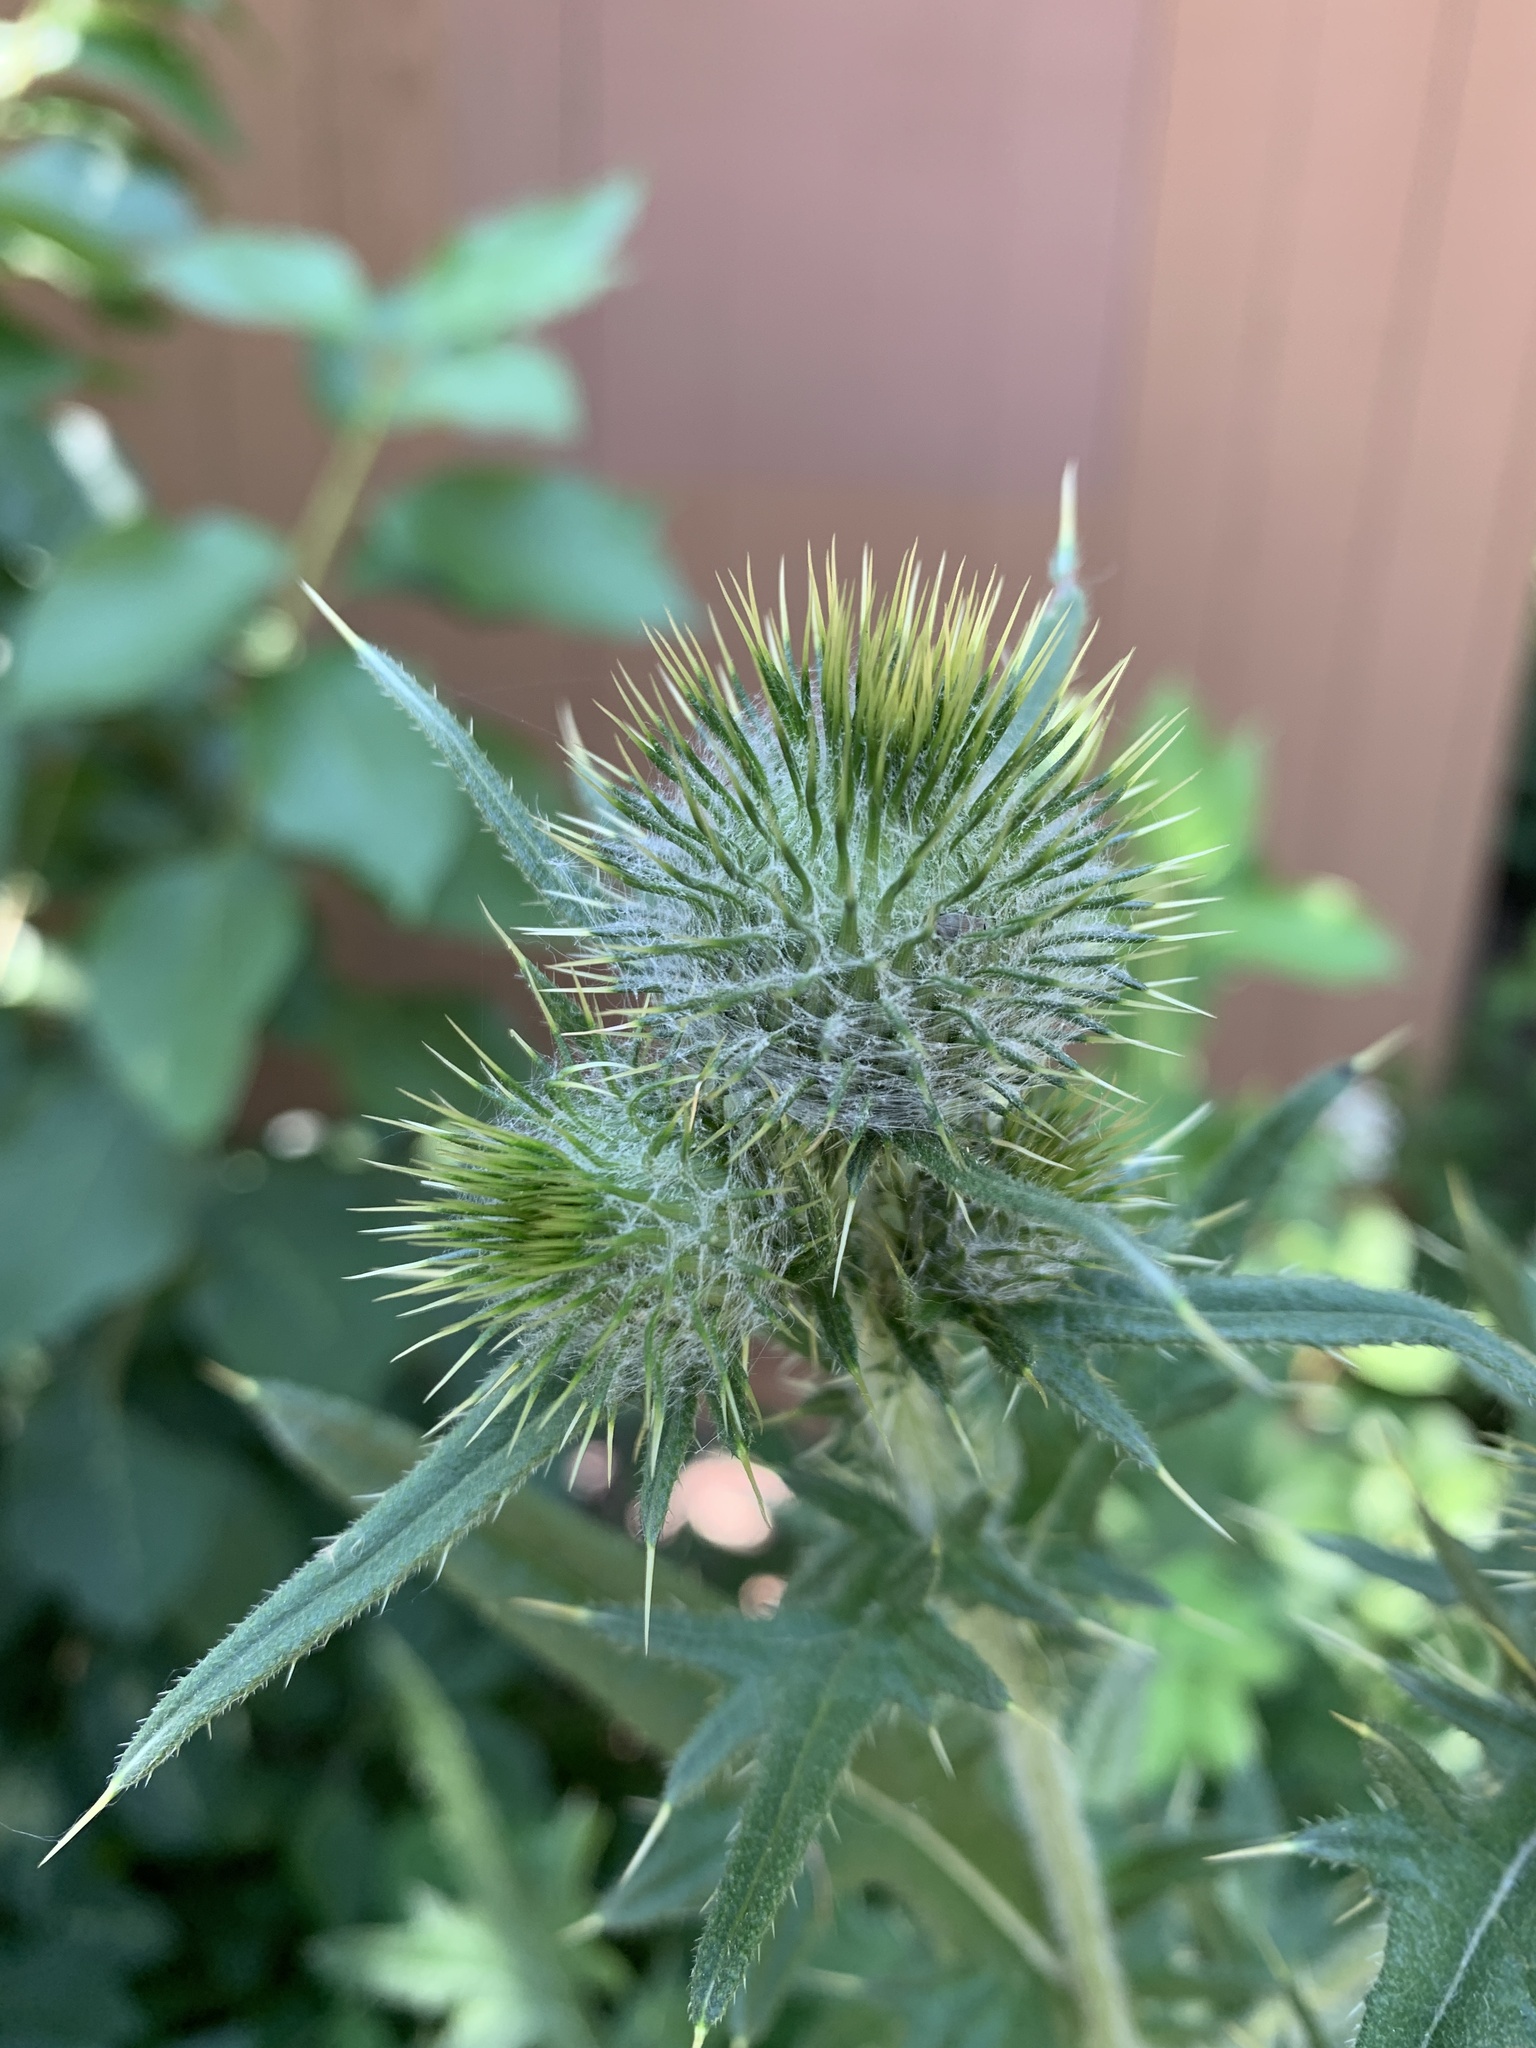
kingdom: Plantae
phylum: Tracheophyta
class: Magnoliopsida
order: Asterales
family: Asteraceae
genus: Cirsium
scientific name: Cirsium vulgare
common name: Bull thistle
